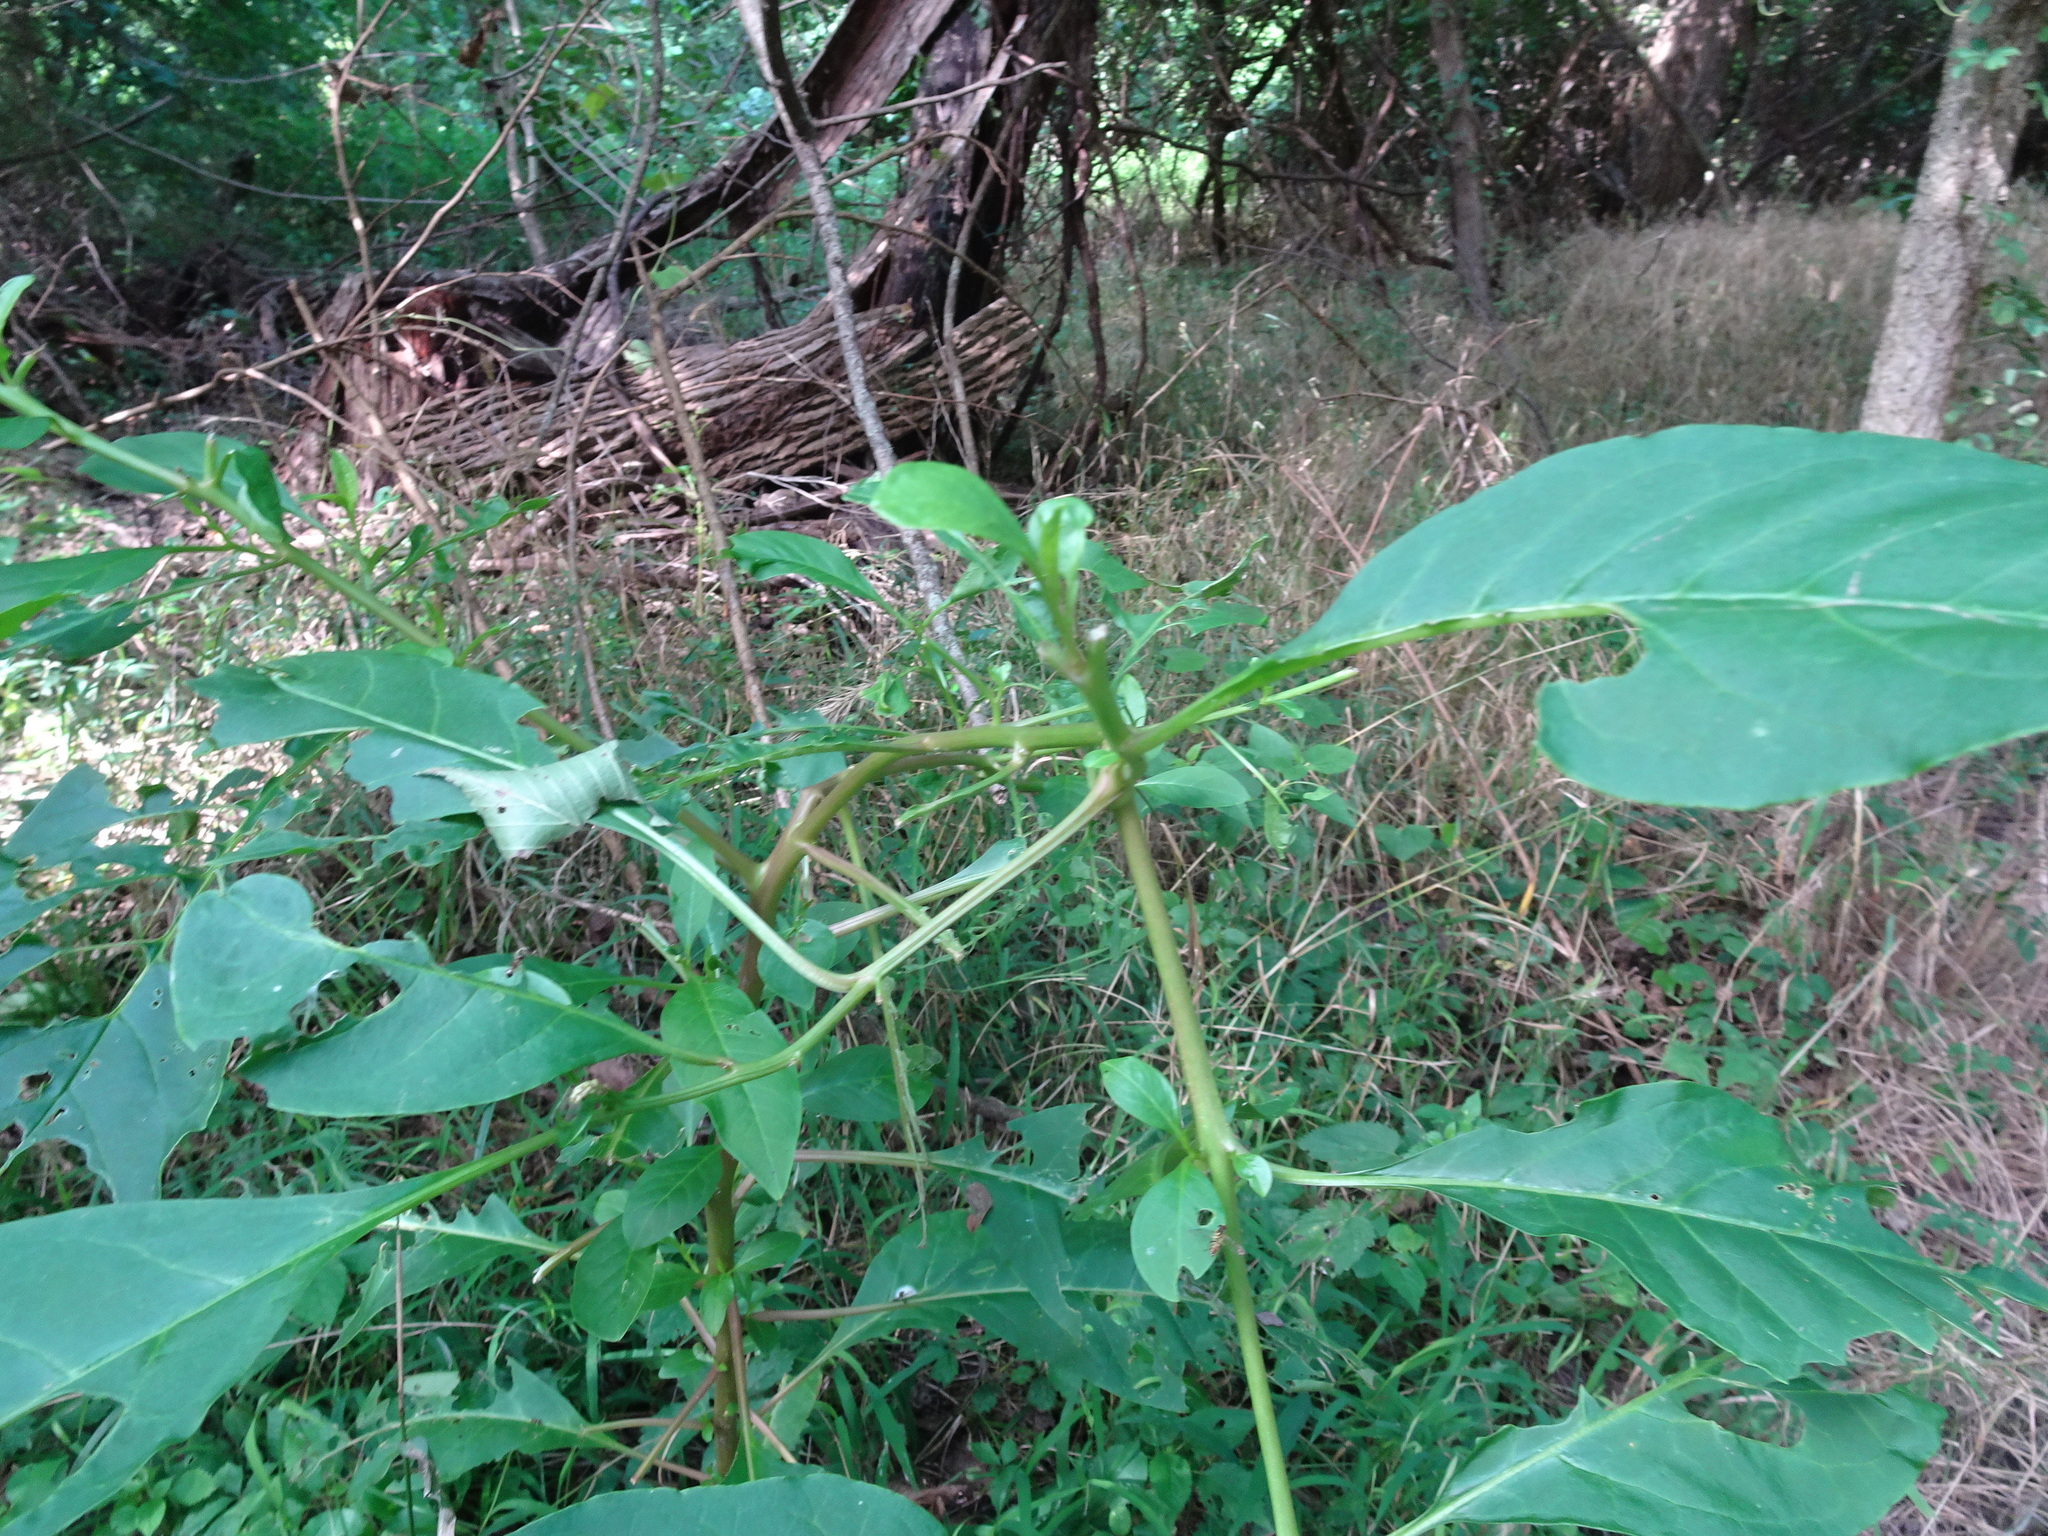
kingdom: Plantae
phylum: Tracheophyta
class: Magnoliopsida
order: Caryophyllales
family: Phytolaccaceae
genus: Phytolacca
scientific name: Phytolacca americana
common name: American pokeweed
